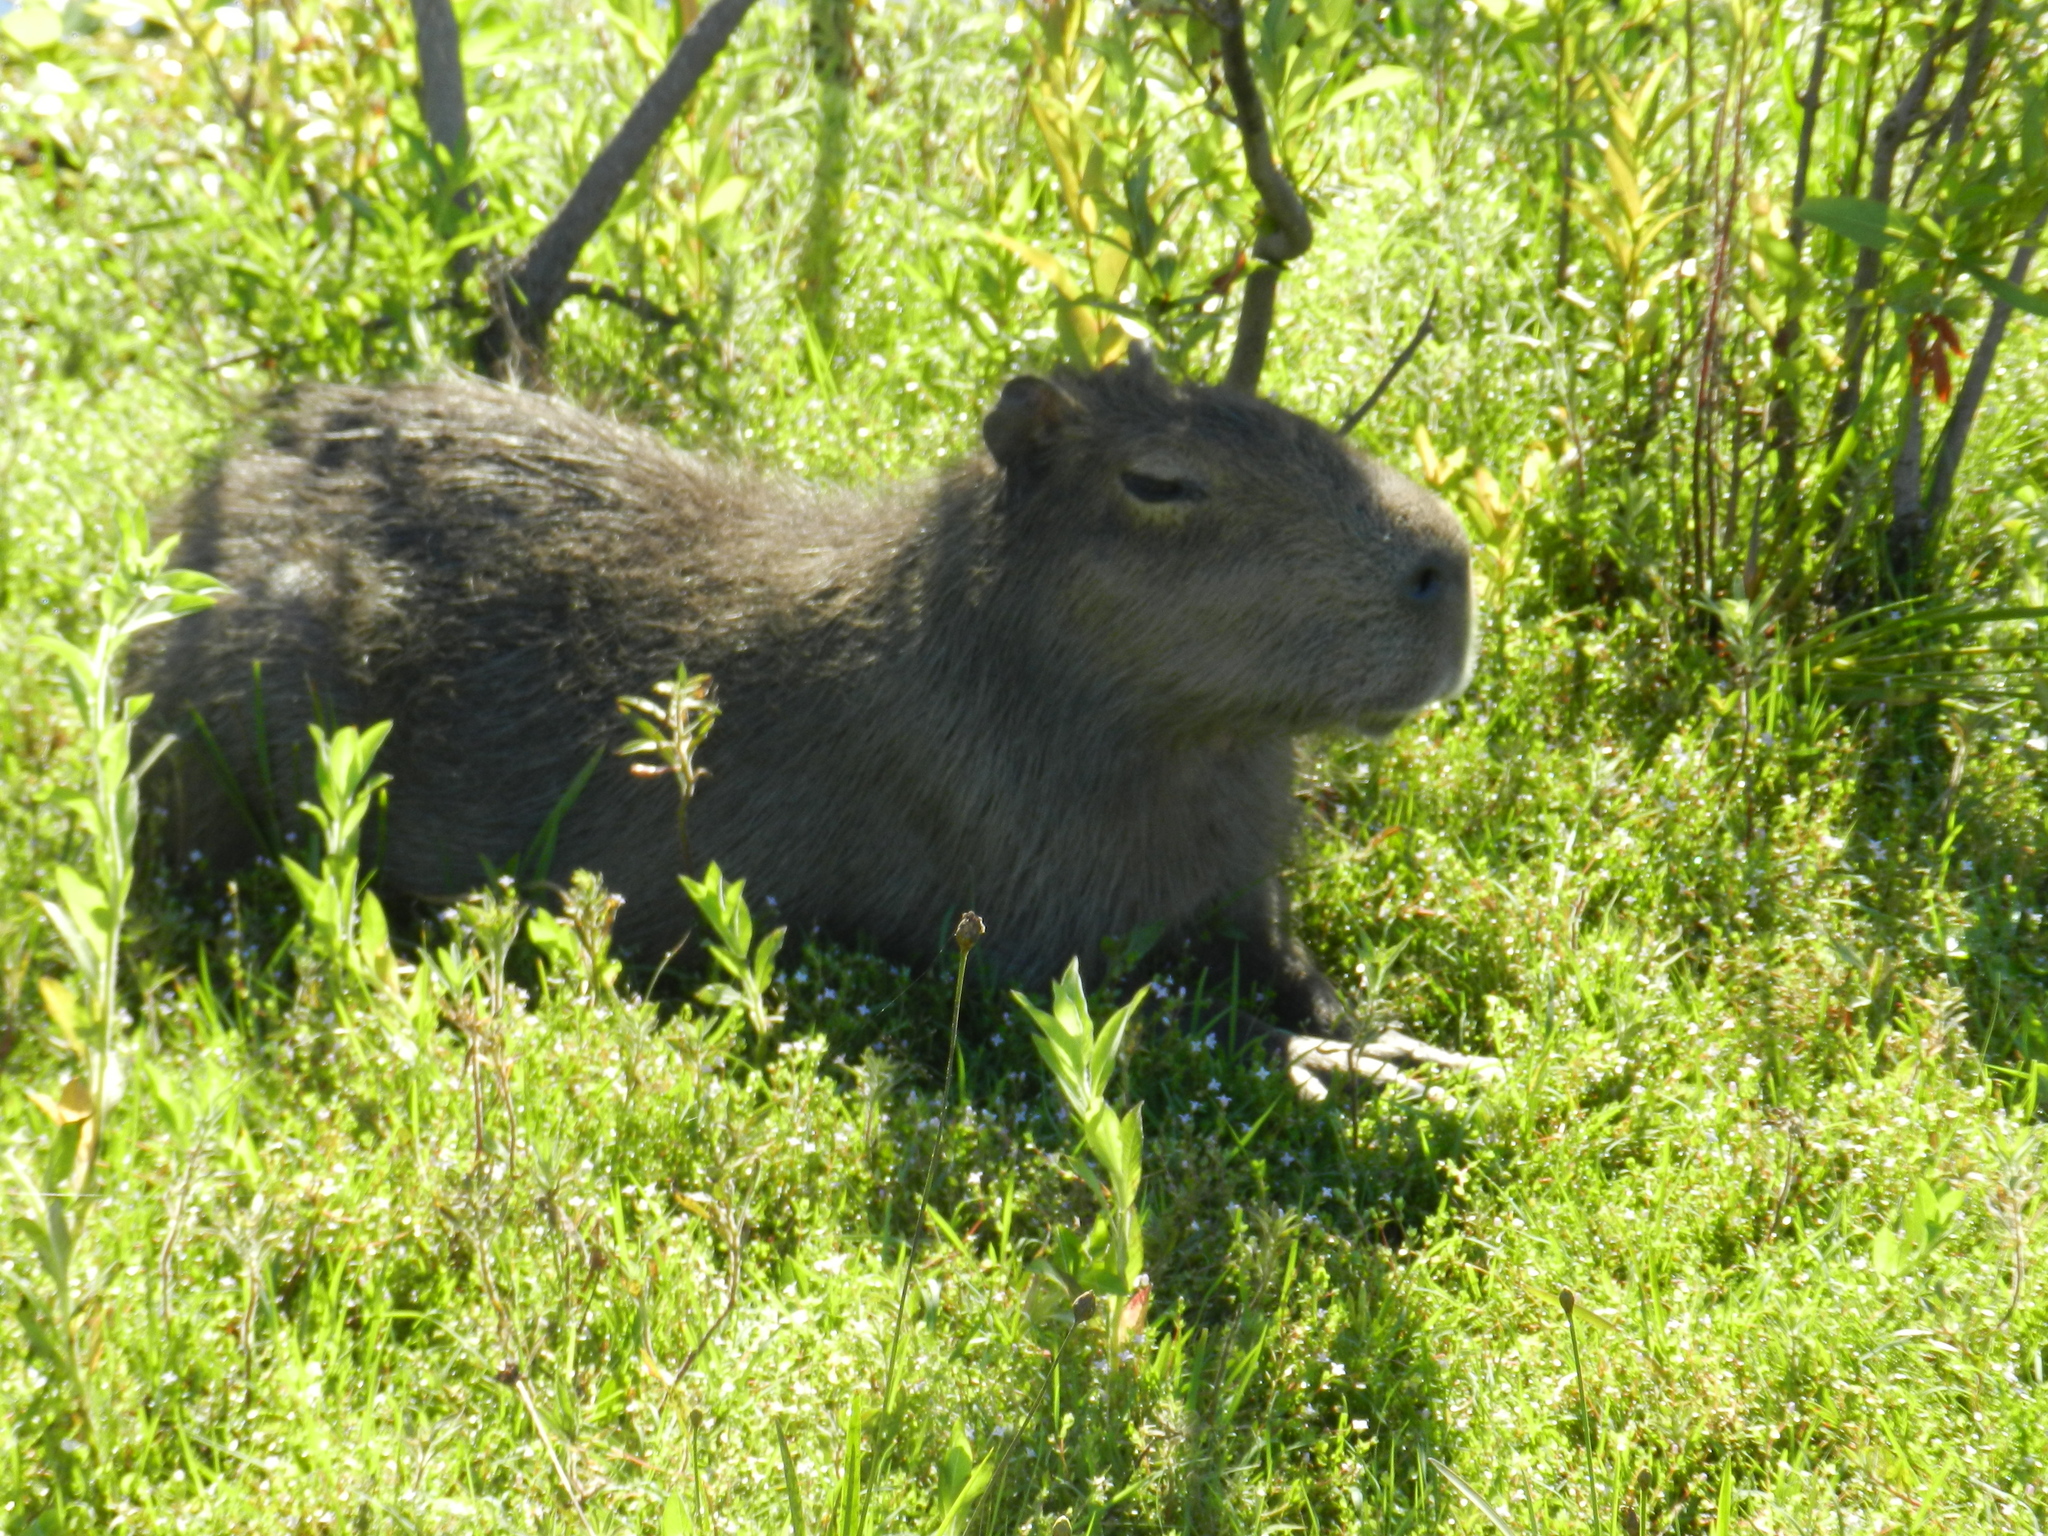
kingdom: Animalia
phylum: Chordata
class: Mammalia
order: Rodentia
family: Caviidae
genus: Hydrochoerus
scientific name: Hydrochoerus hydrochaeris
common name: Capybara
